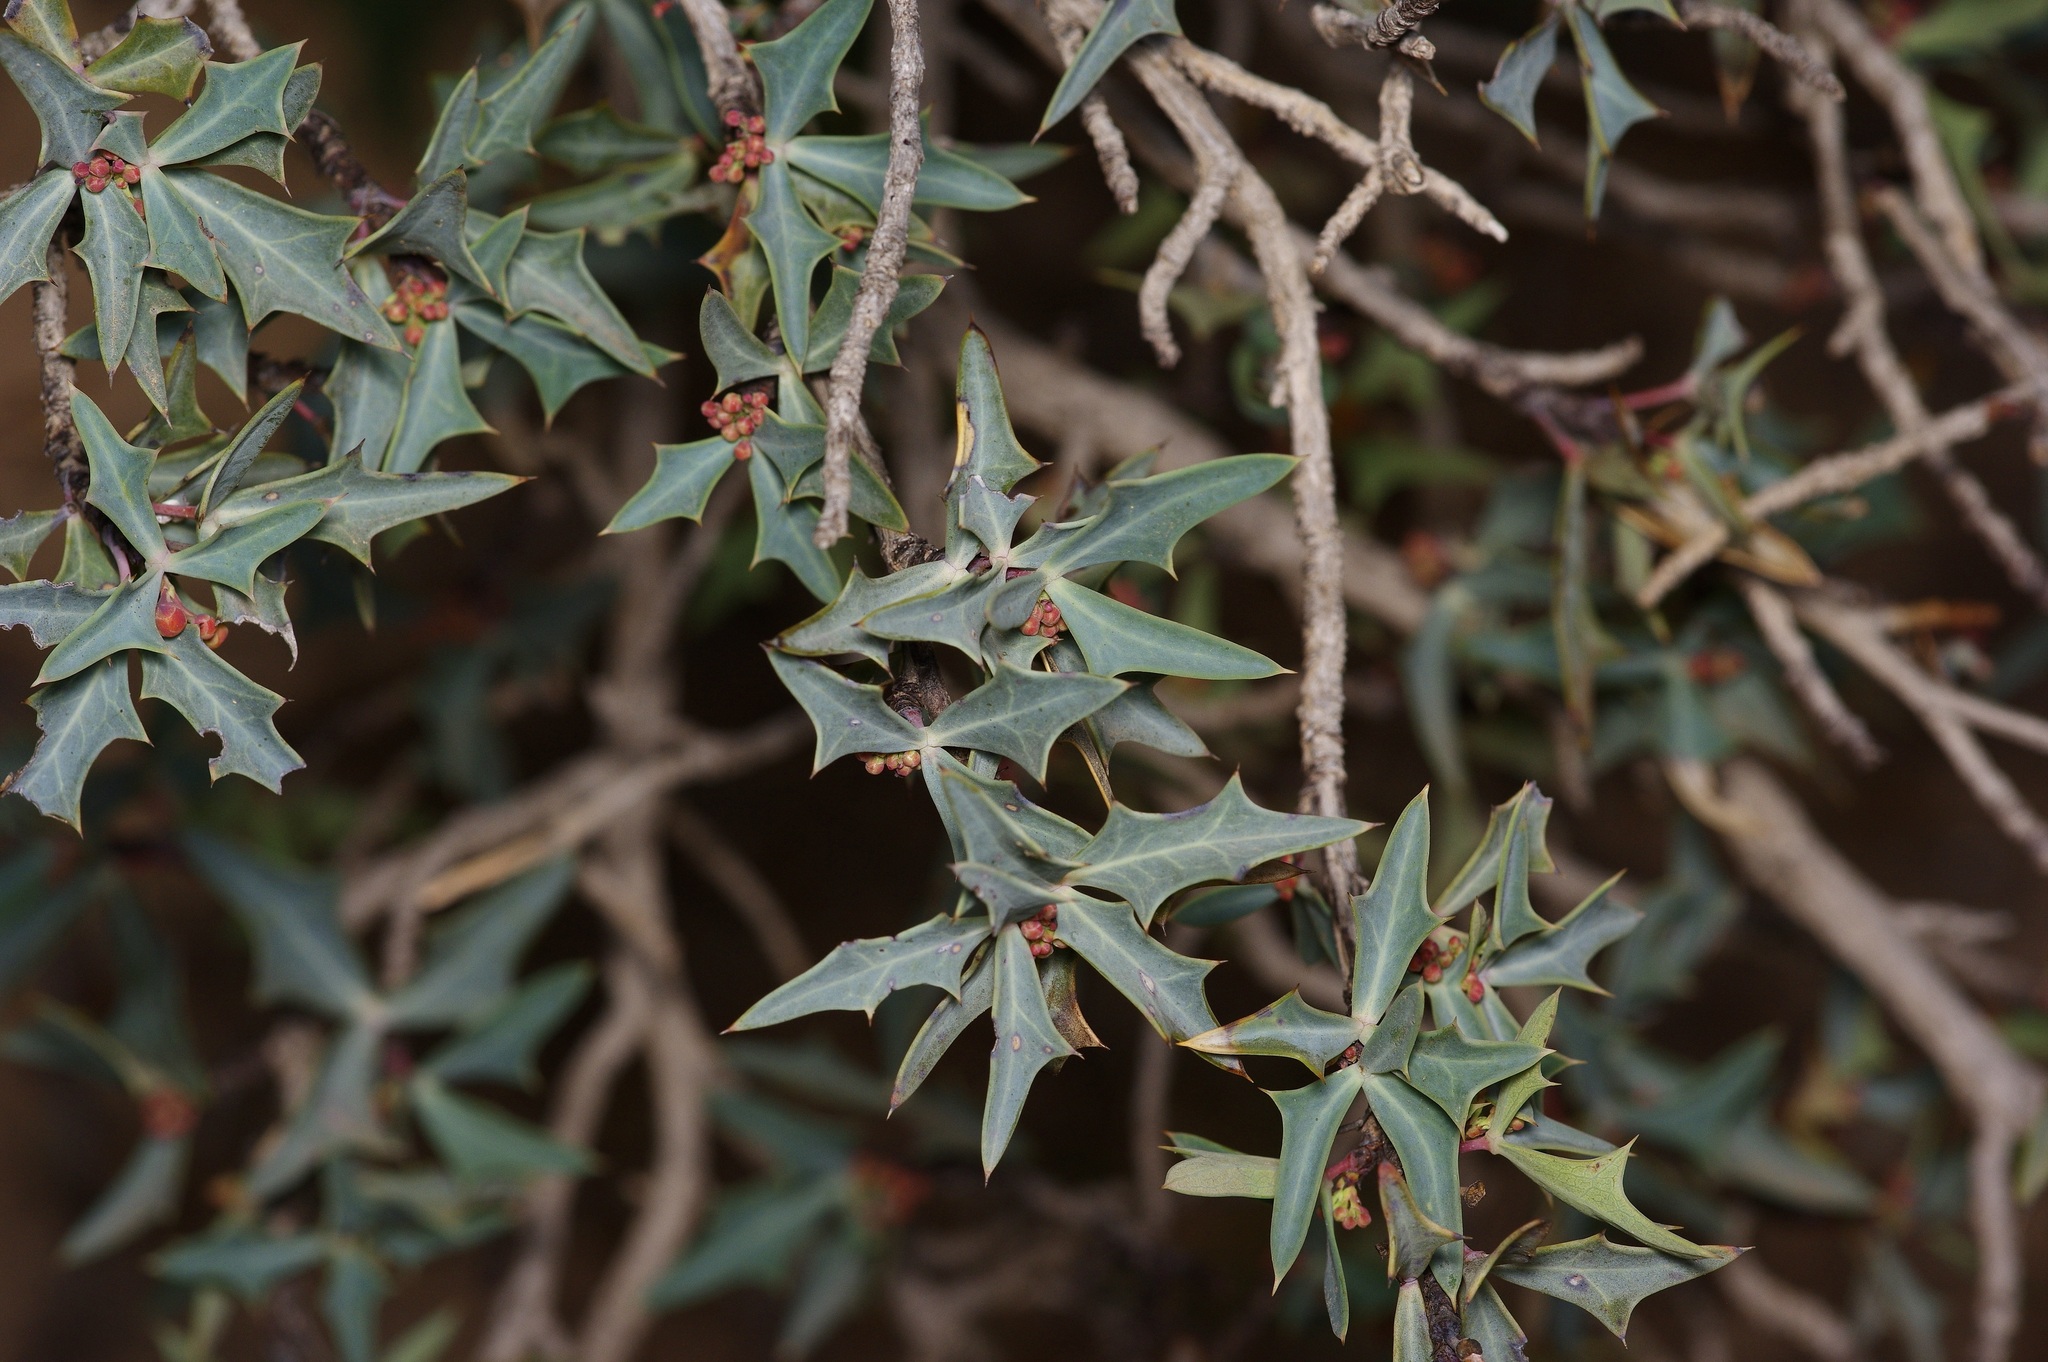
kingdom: Plantae
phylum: Tracheophyta
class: Magnoliopsida
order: Ranunculales
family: Berberidaceae
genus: Alloberberis
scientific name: Alloberberis trifoliolata
